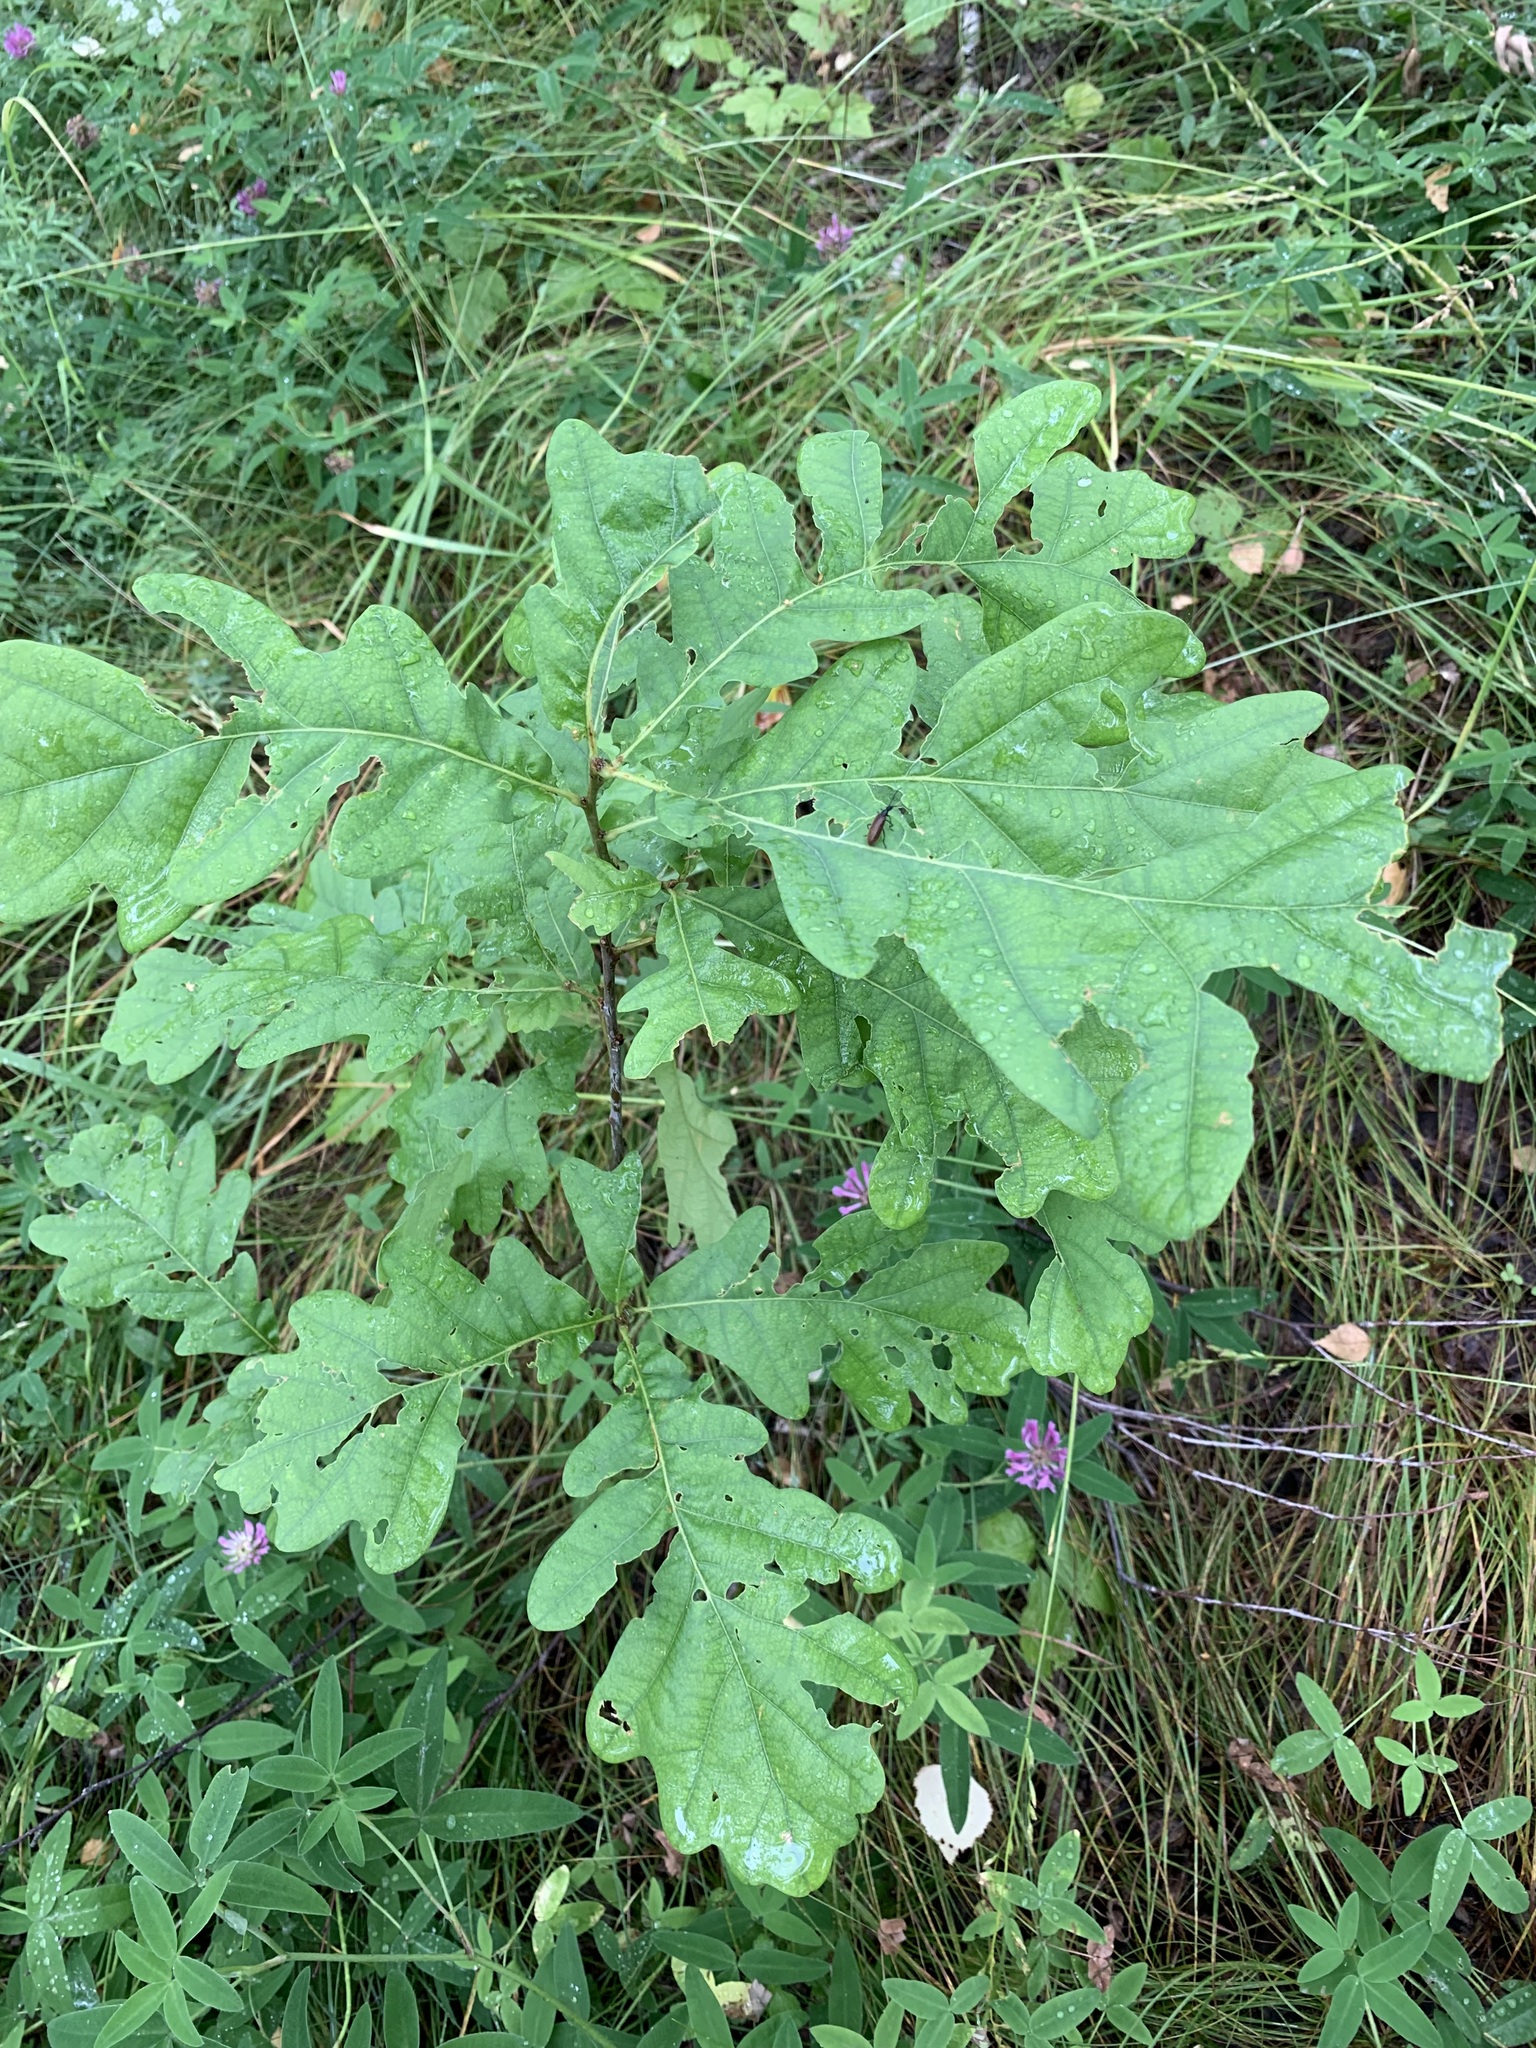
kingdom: Plantae
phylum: Tracheophyta
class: Magnoliopsida
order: Fagales
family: Fagaceae
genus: Quercus
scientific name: Quercus robur
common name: Pedunculate oak
